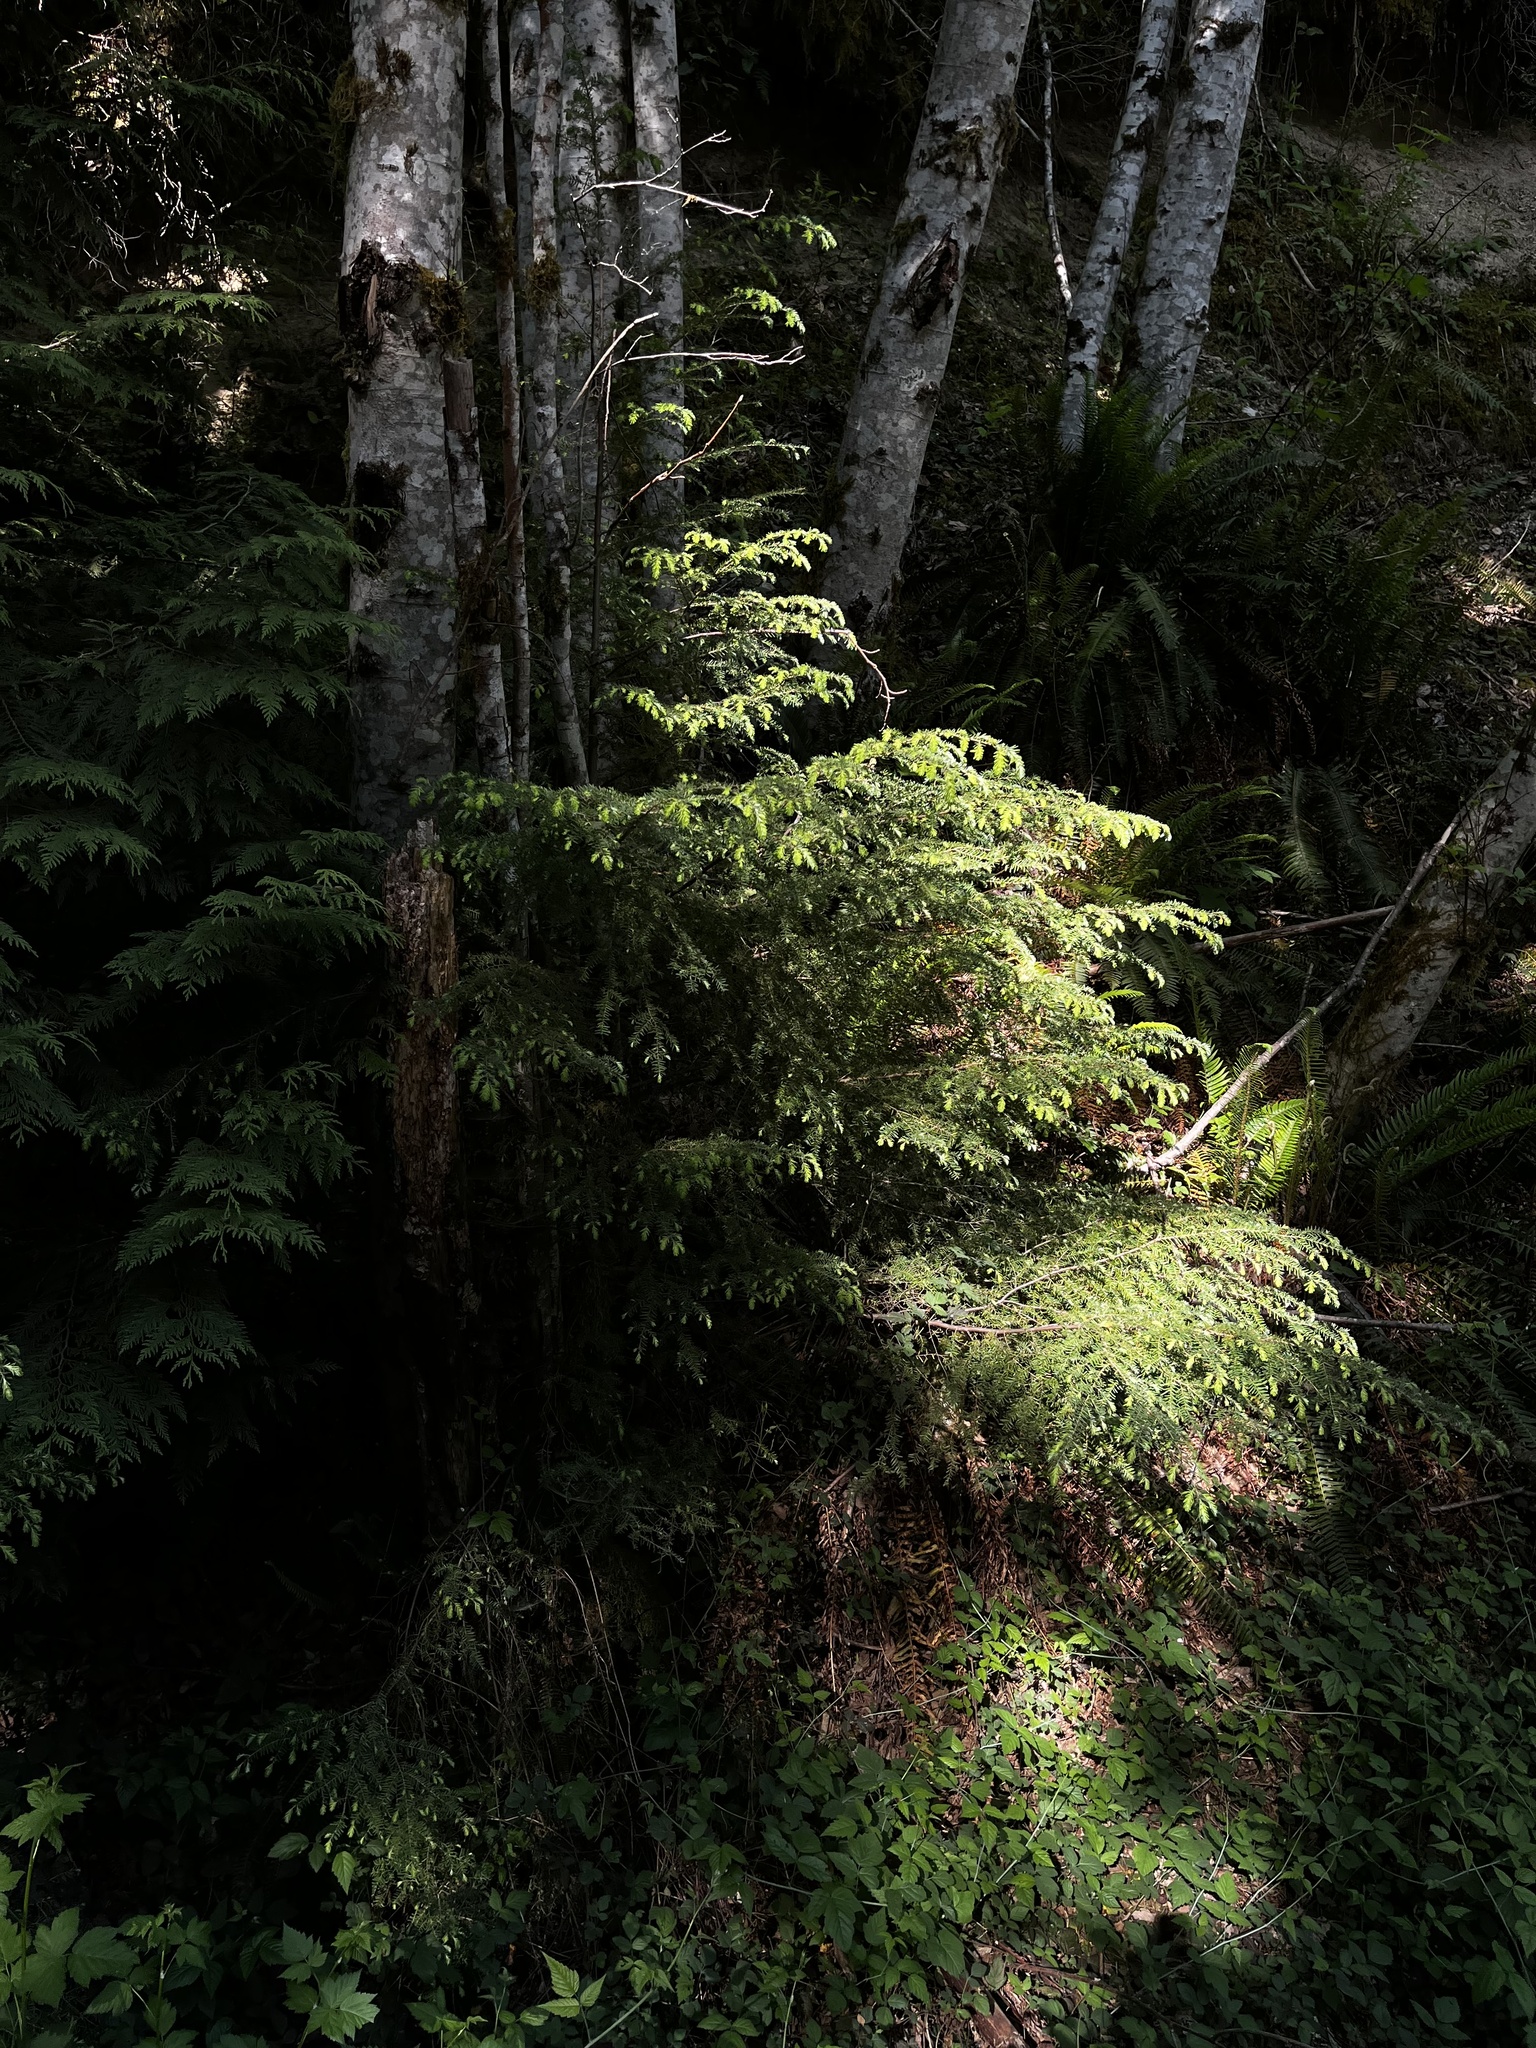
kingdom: Plantae
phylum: Tracheophyta
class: Pinopsida
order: Pinales
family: Pinaceae
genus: Tsuga
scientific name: Tsuga heterophylla
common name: Western hemlock
